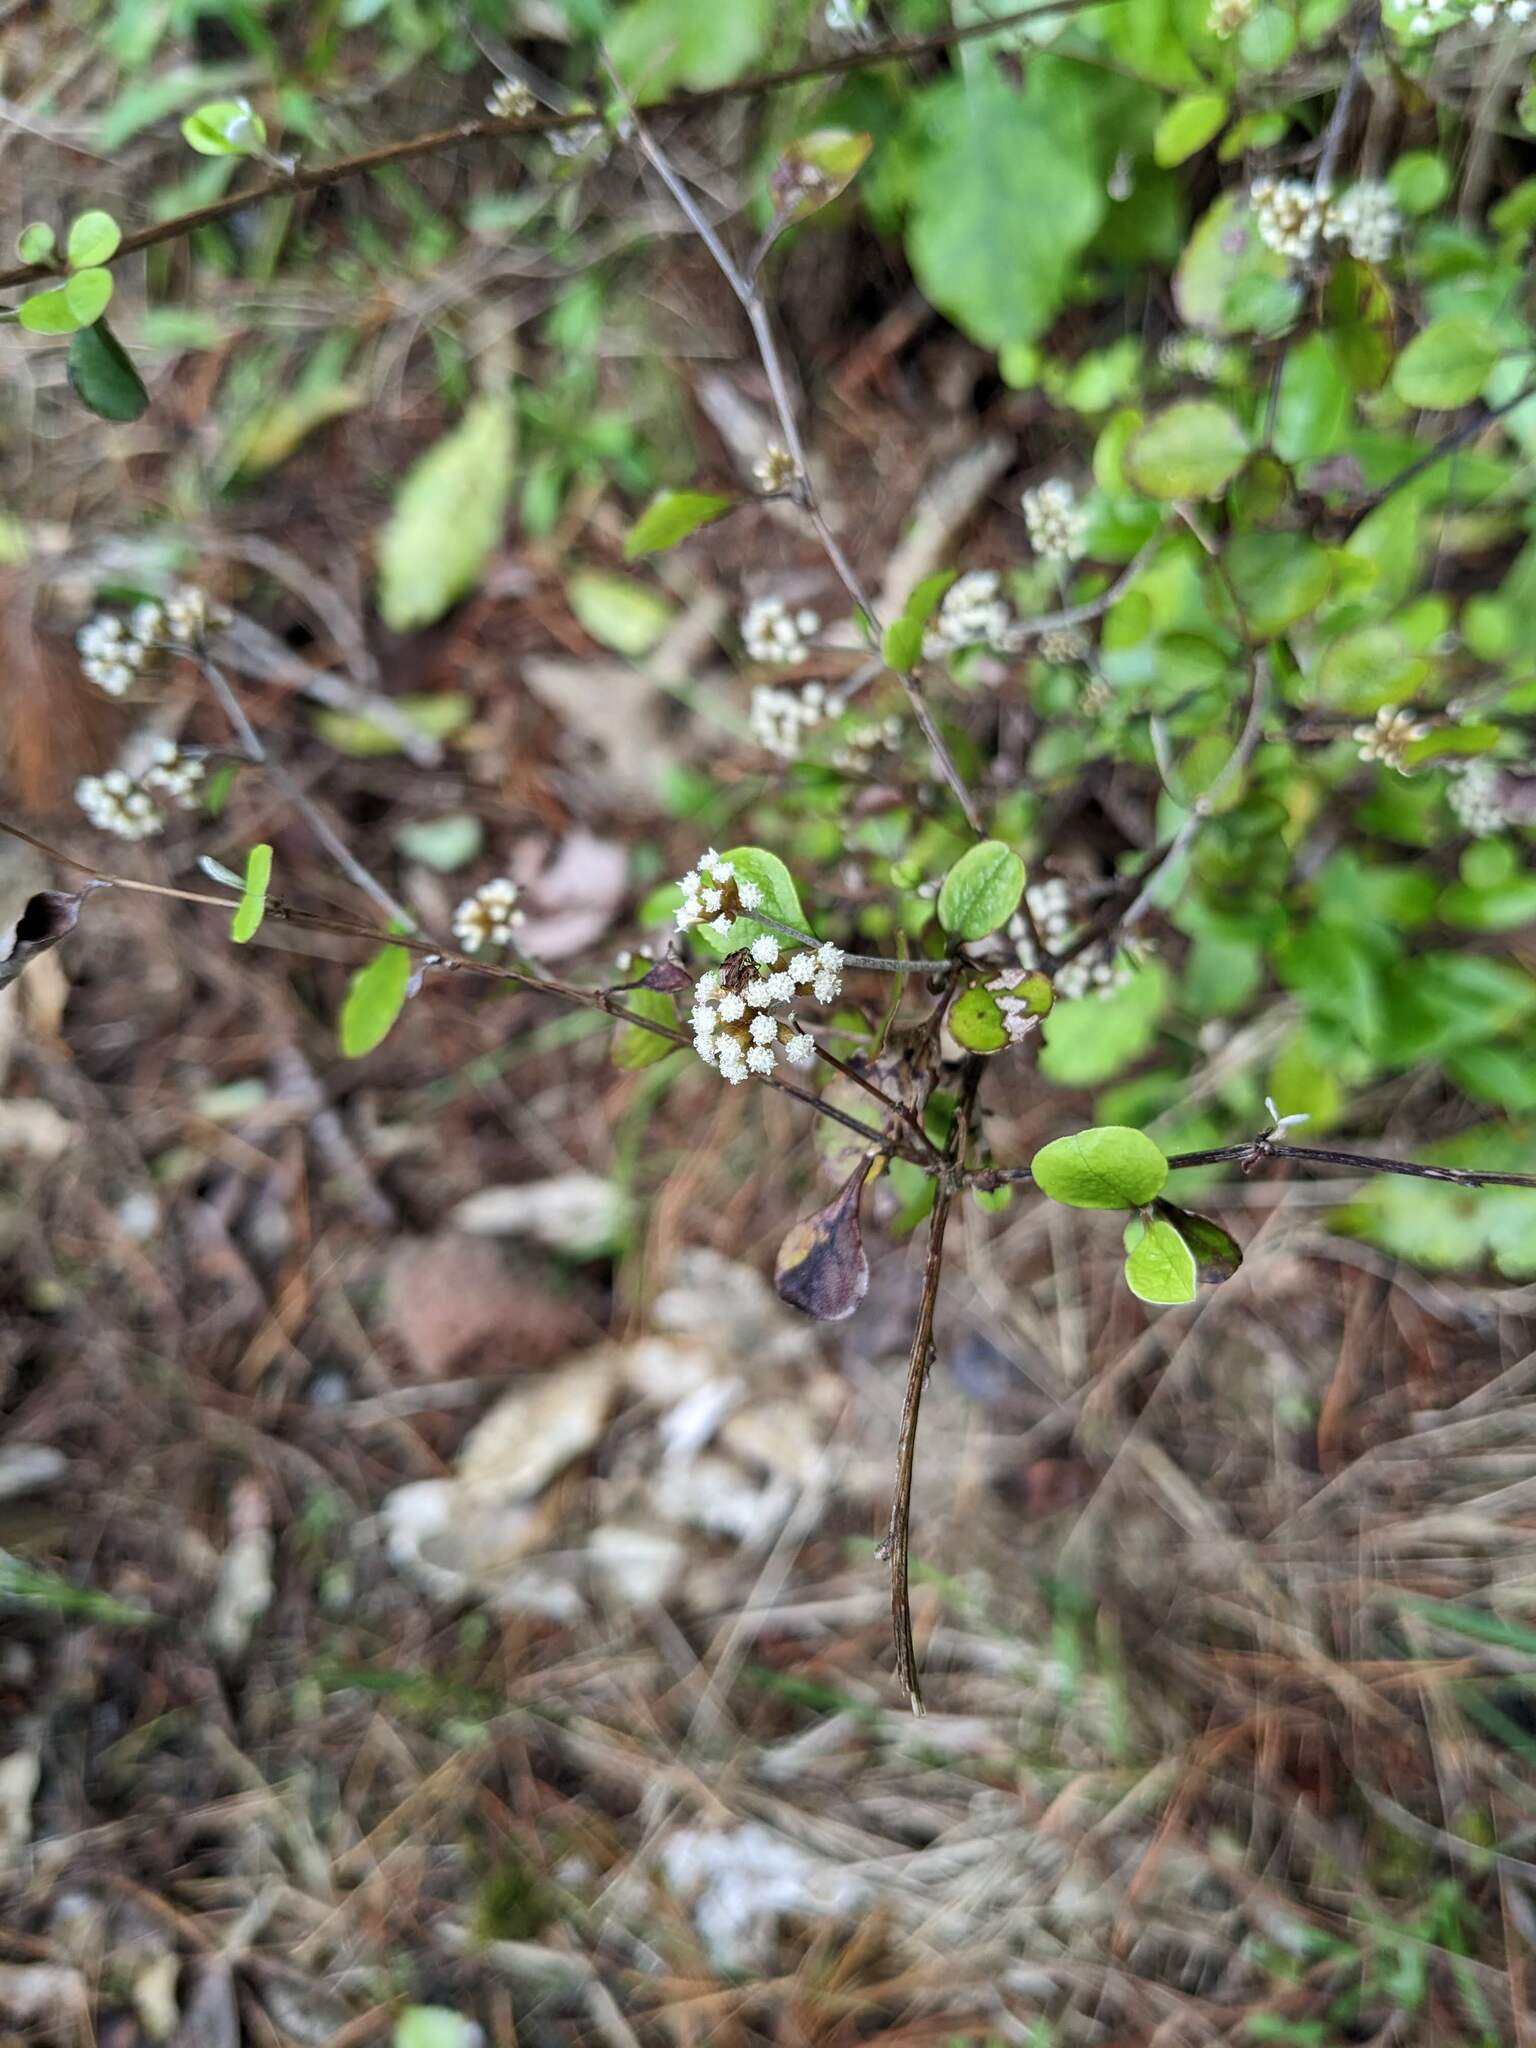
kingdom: Plantae
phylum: Tracheophyta
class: Magnoliopsida
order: Asterales
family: Asteraceae
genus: Ozothamnus
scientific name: Ozothamnus glomeratus
